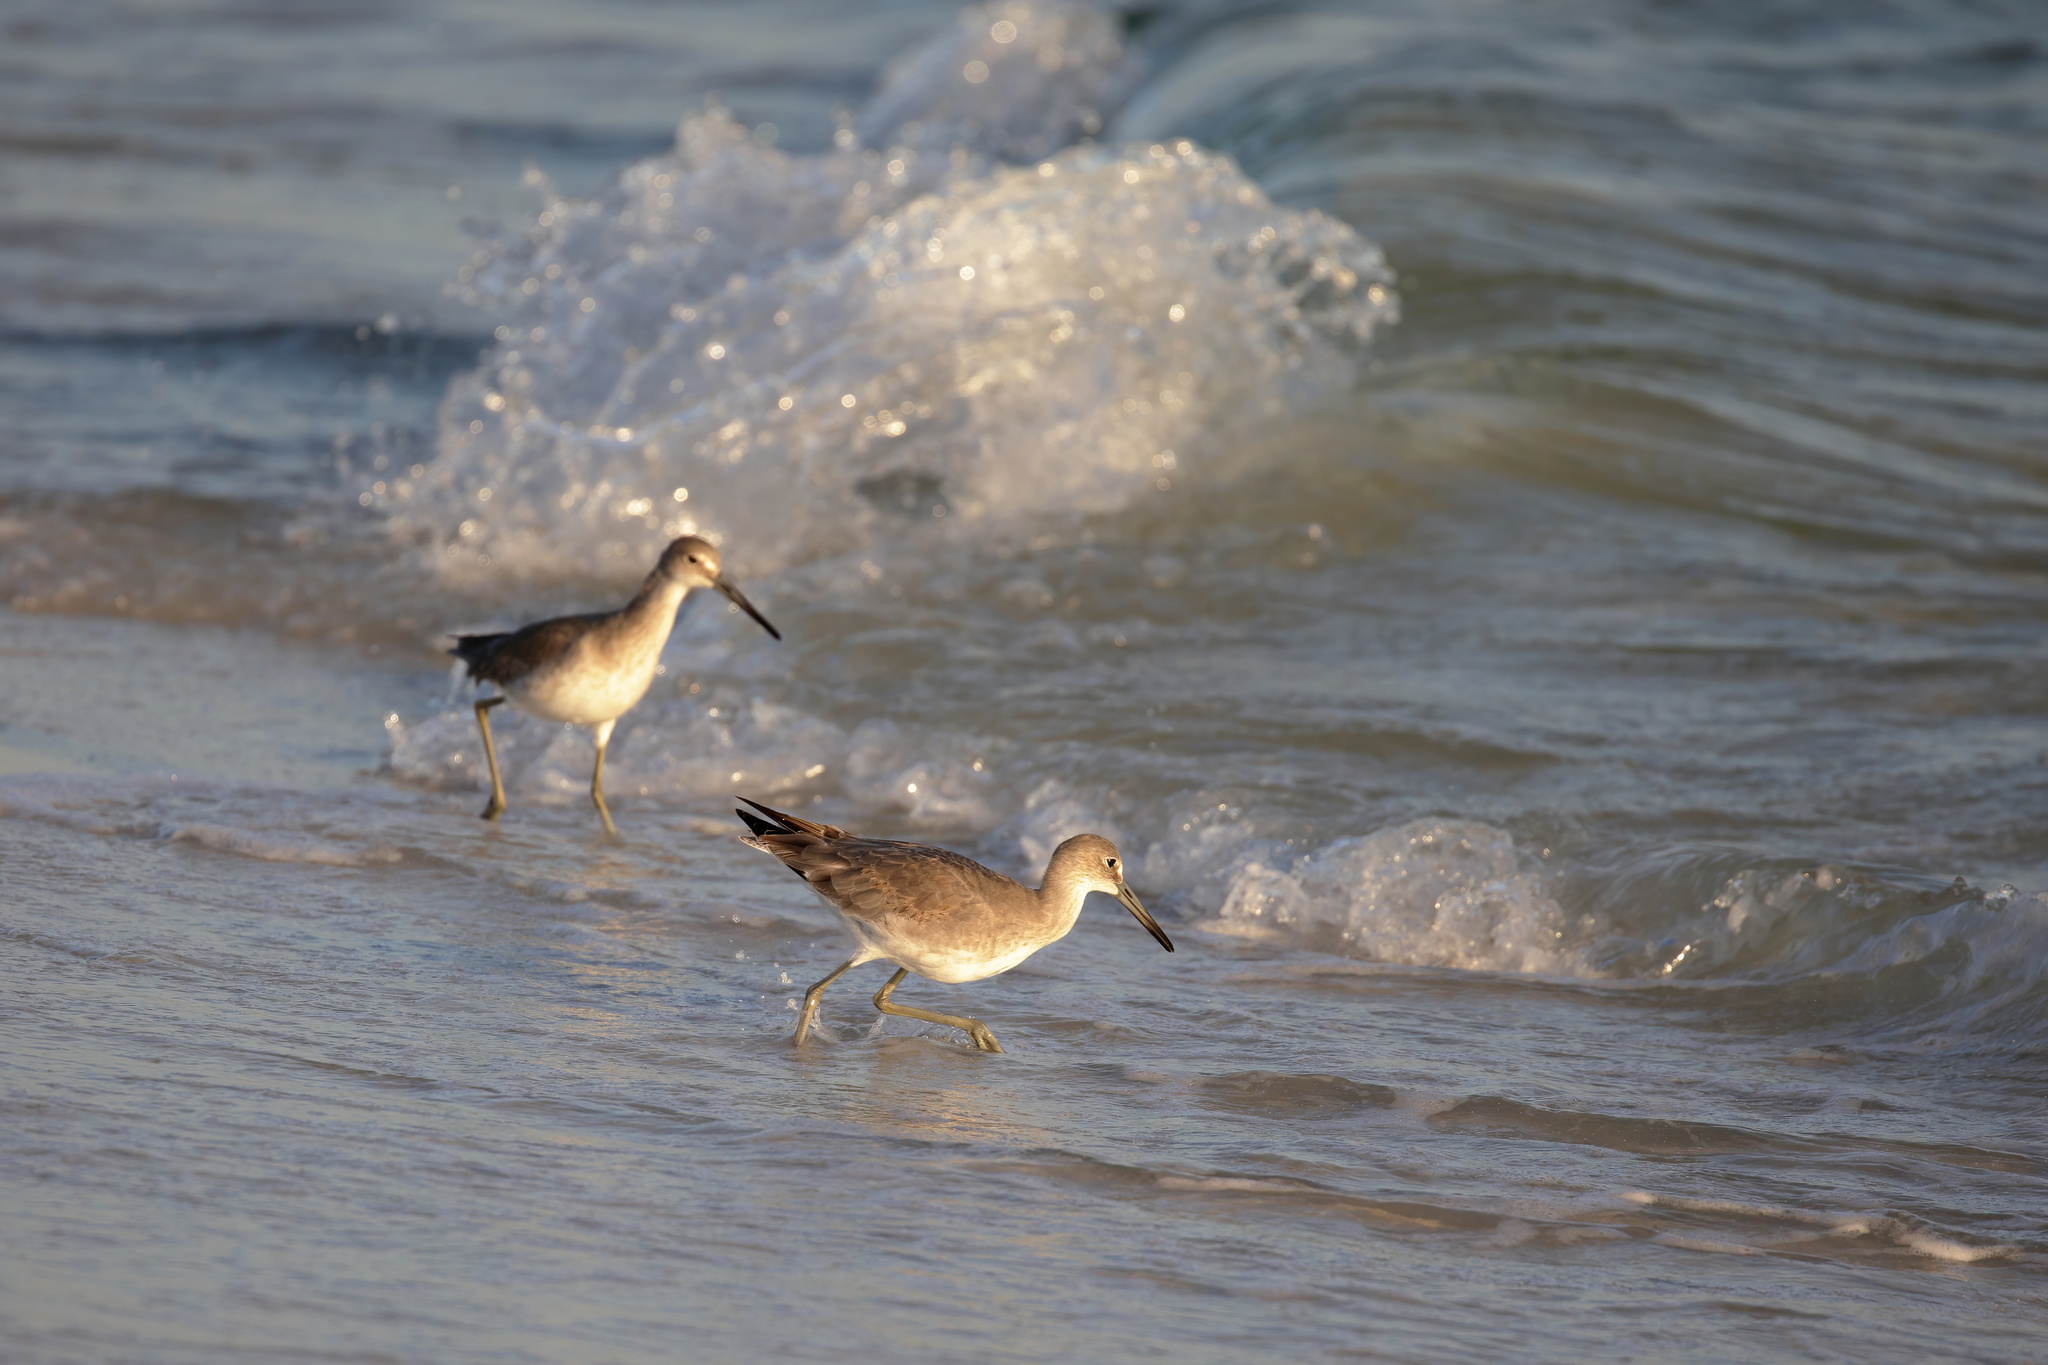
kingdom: Animalia
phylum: Chordata
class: Aves
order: Charadriiformes
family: Scolopacidae
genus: Tringa
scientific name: Tringa semipalmata
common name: Willet
